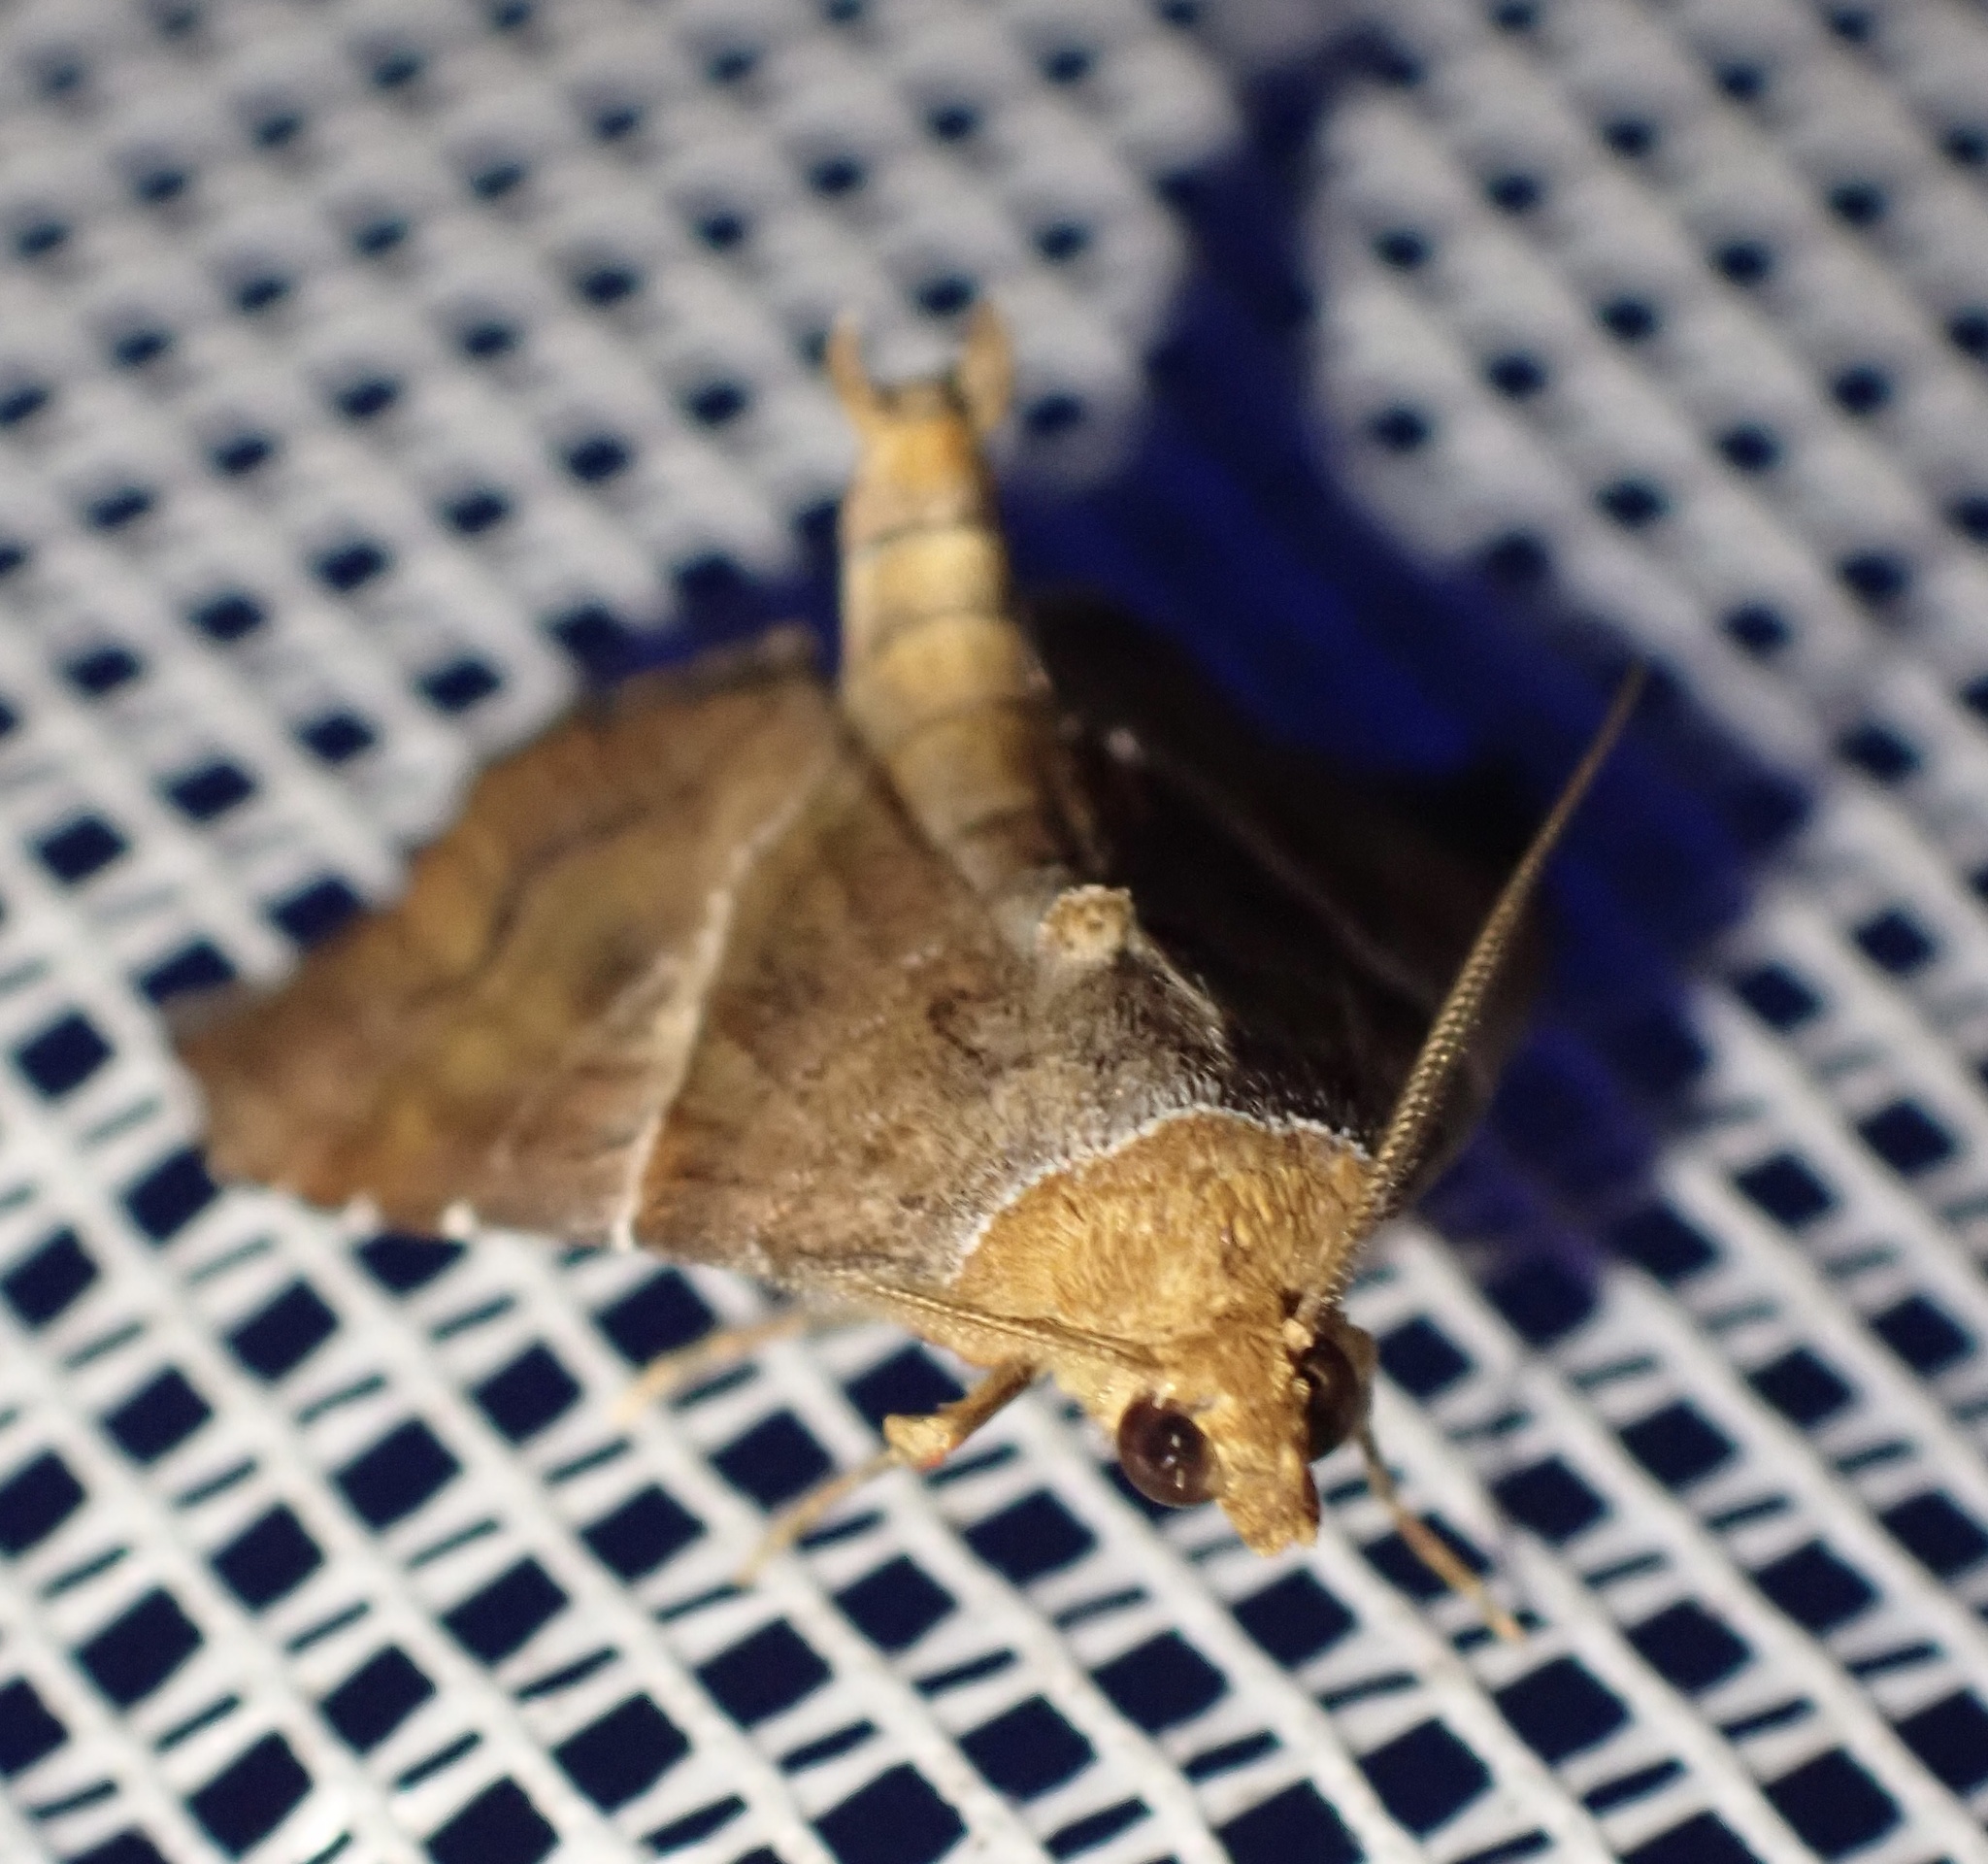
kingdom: Animalia
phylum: Arthropoda
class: Insecta
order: Lepidoptera
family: Erebidae
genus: Radara
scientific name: Radara subcupralis
